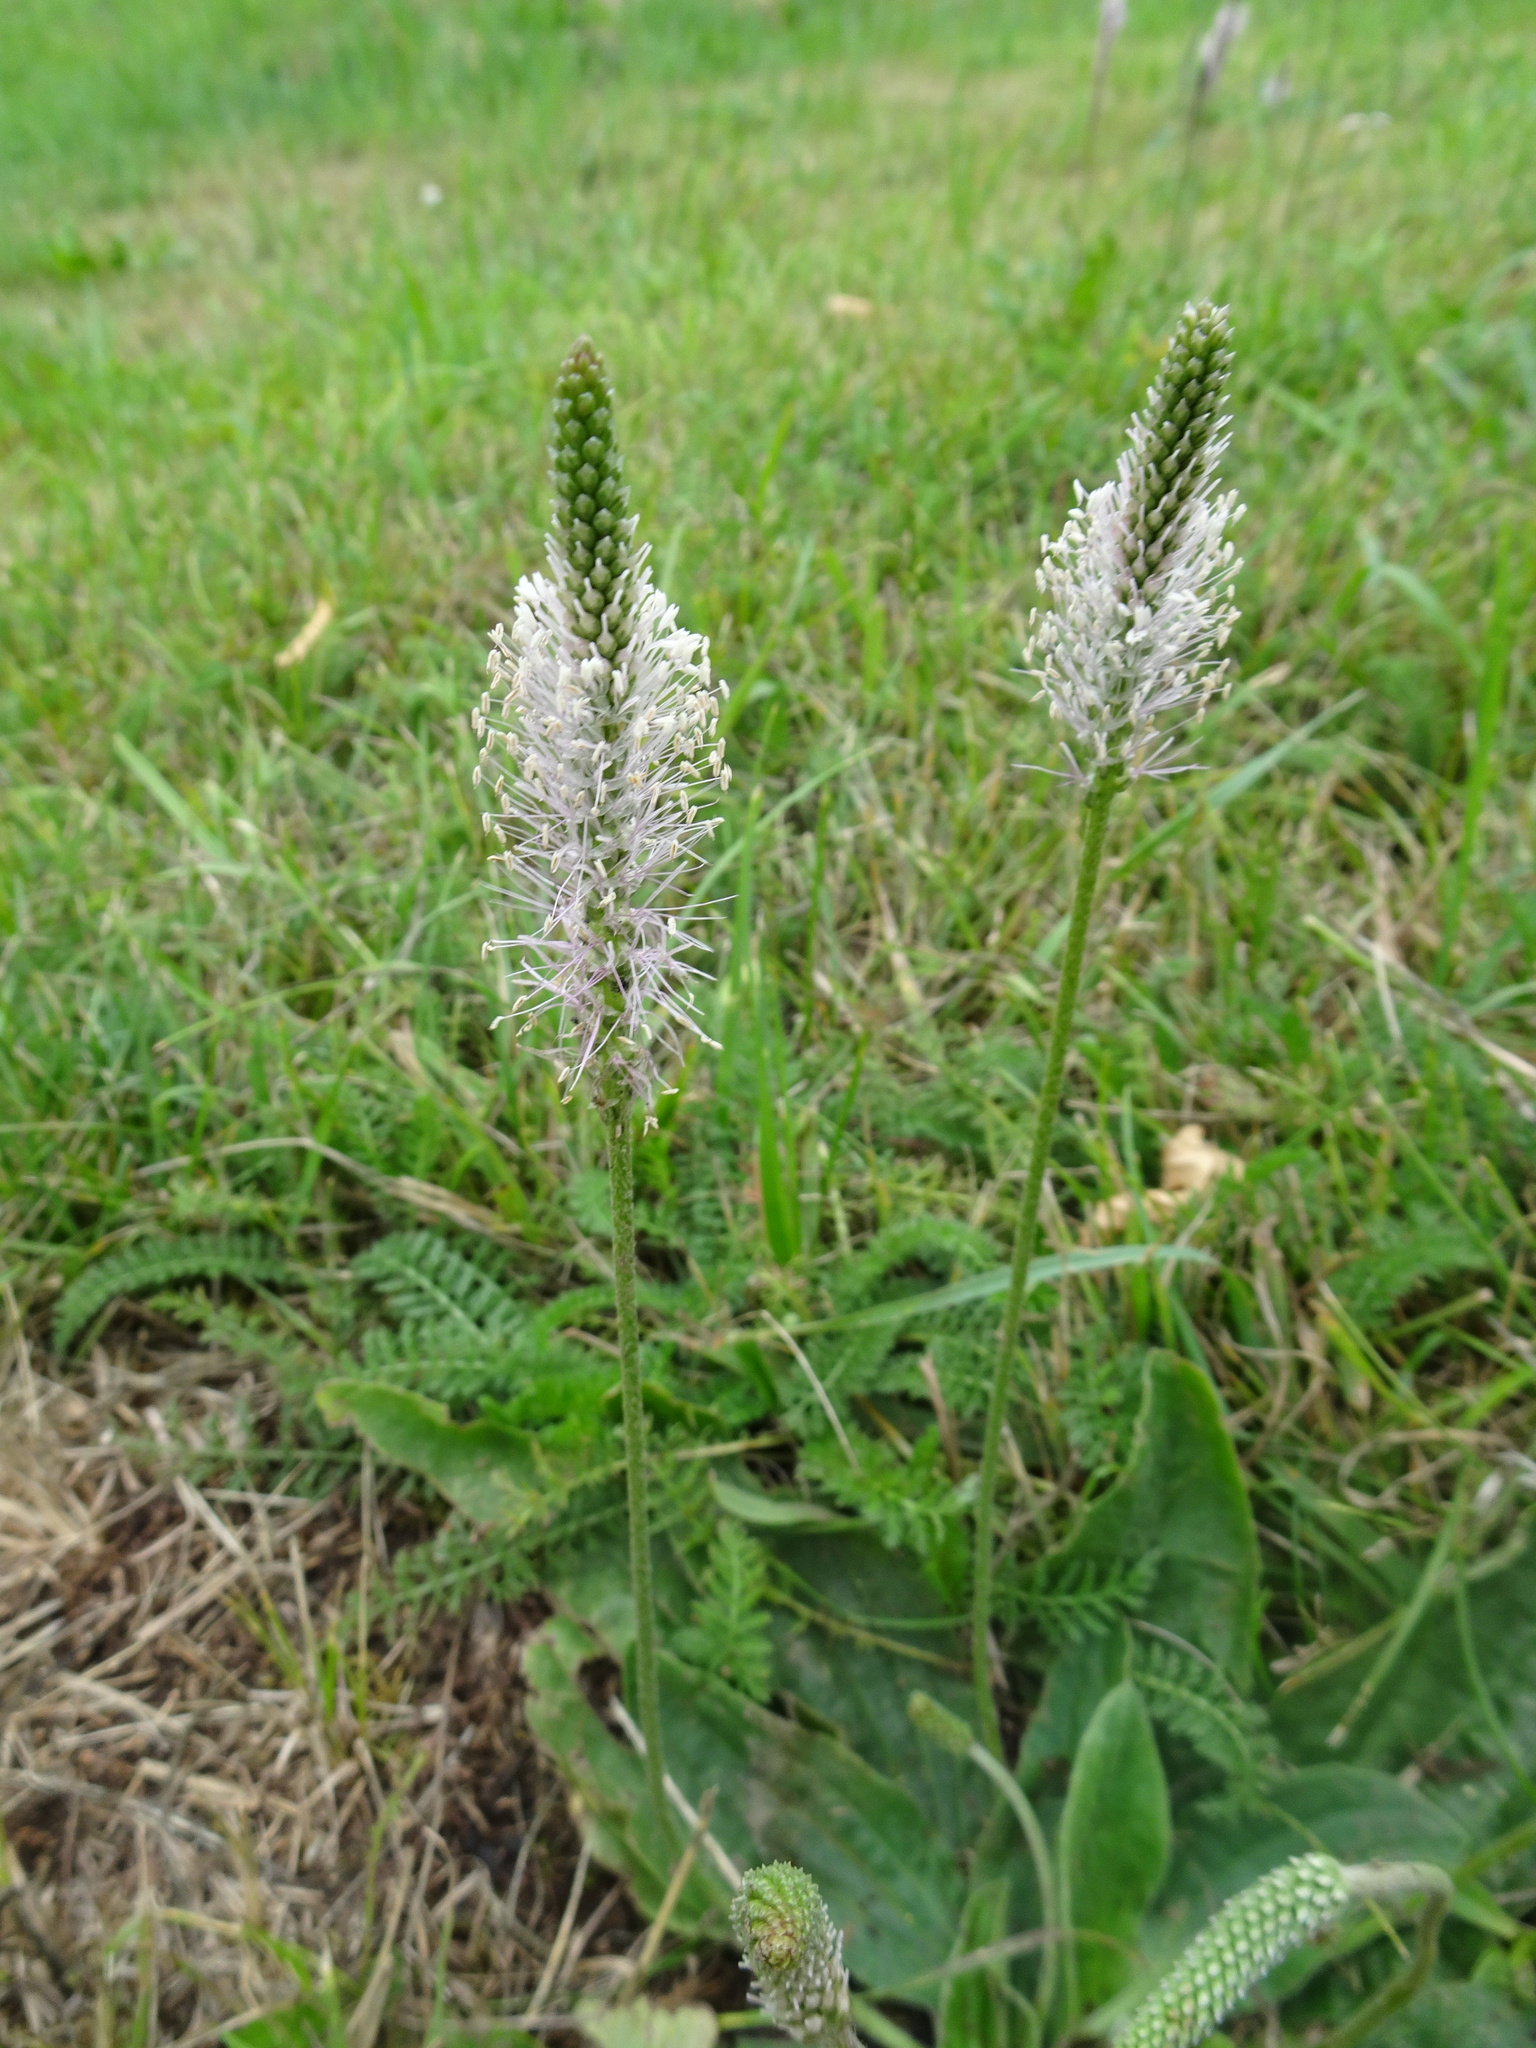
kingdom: Plantae
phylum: Tracheophyta
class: Magnoliopsida
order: Lamiales
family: Plantaginaceae
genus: Plantago
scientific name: Plantago media
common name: Hoary plantain
